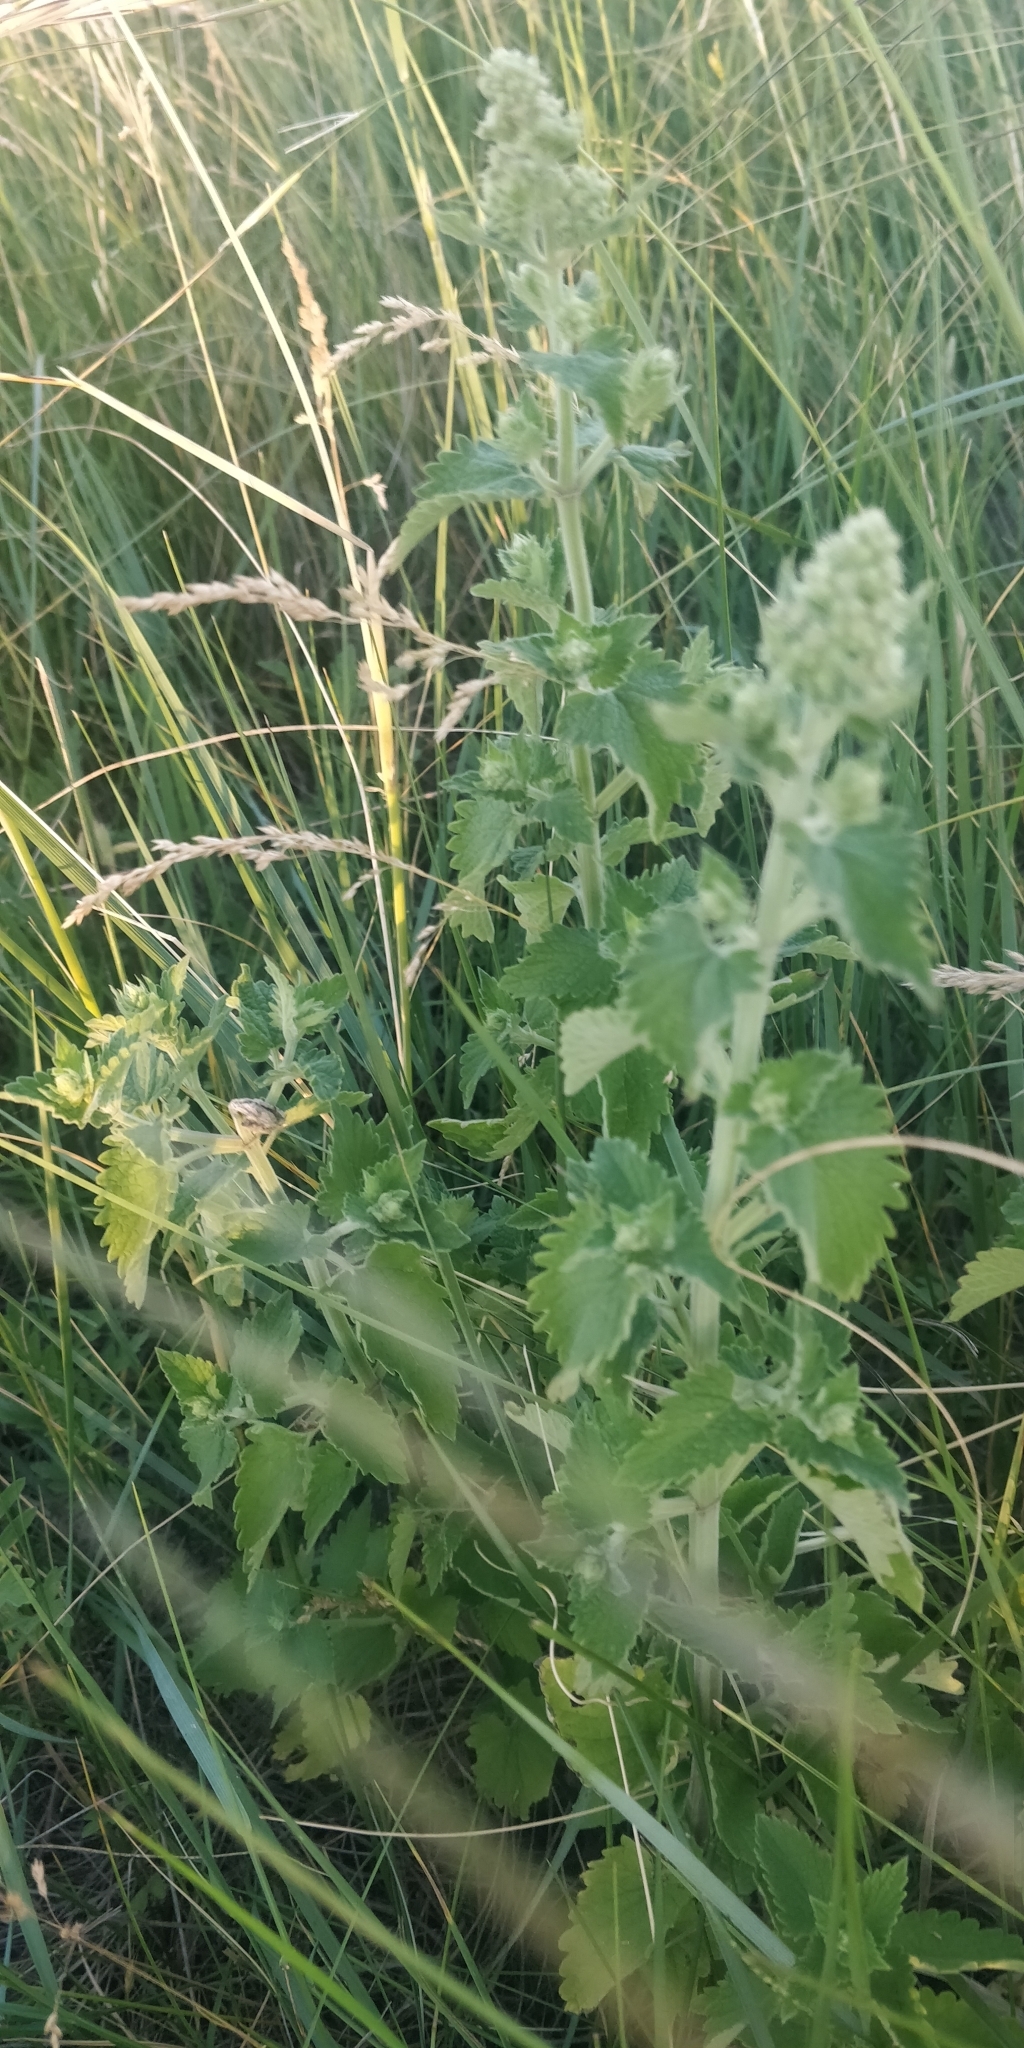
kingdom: Plantae
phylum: Tracheophyta
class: Magnoliopsida
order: Lamiales
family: Lamiaceae
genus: Nepeta
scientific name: Nepeta cataria
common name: Catnip
